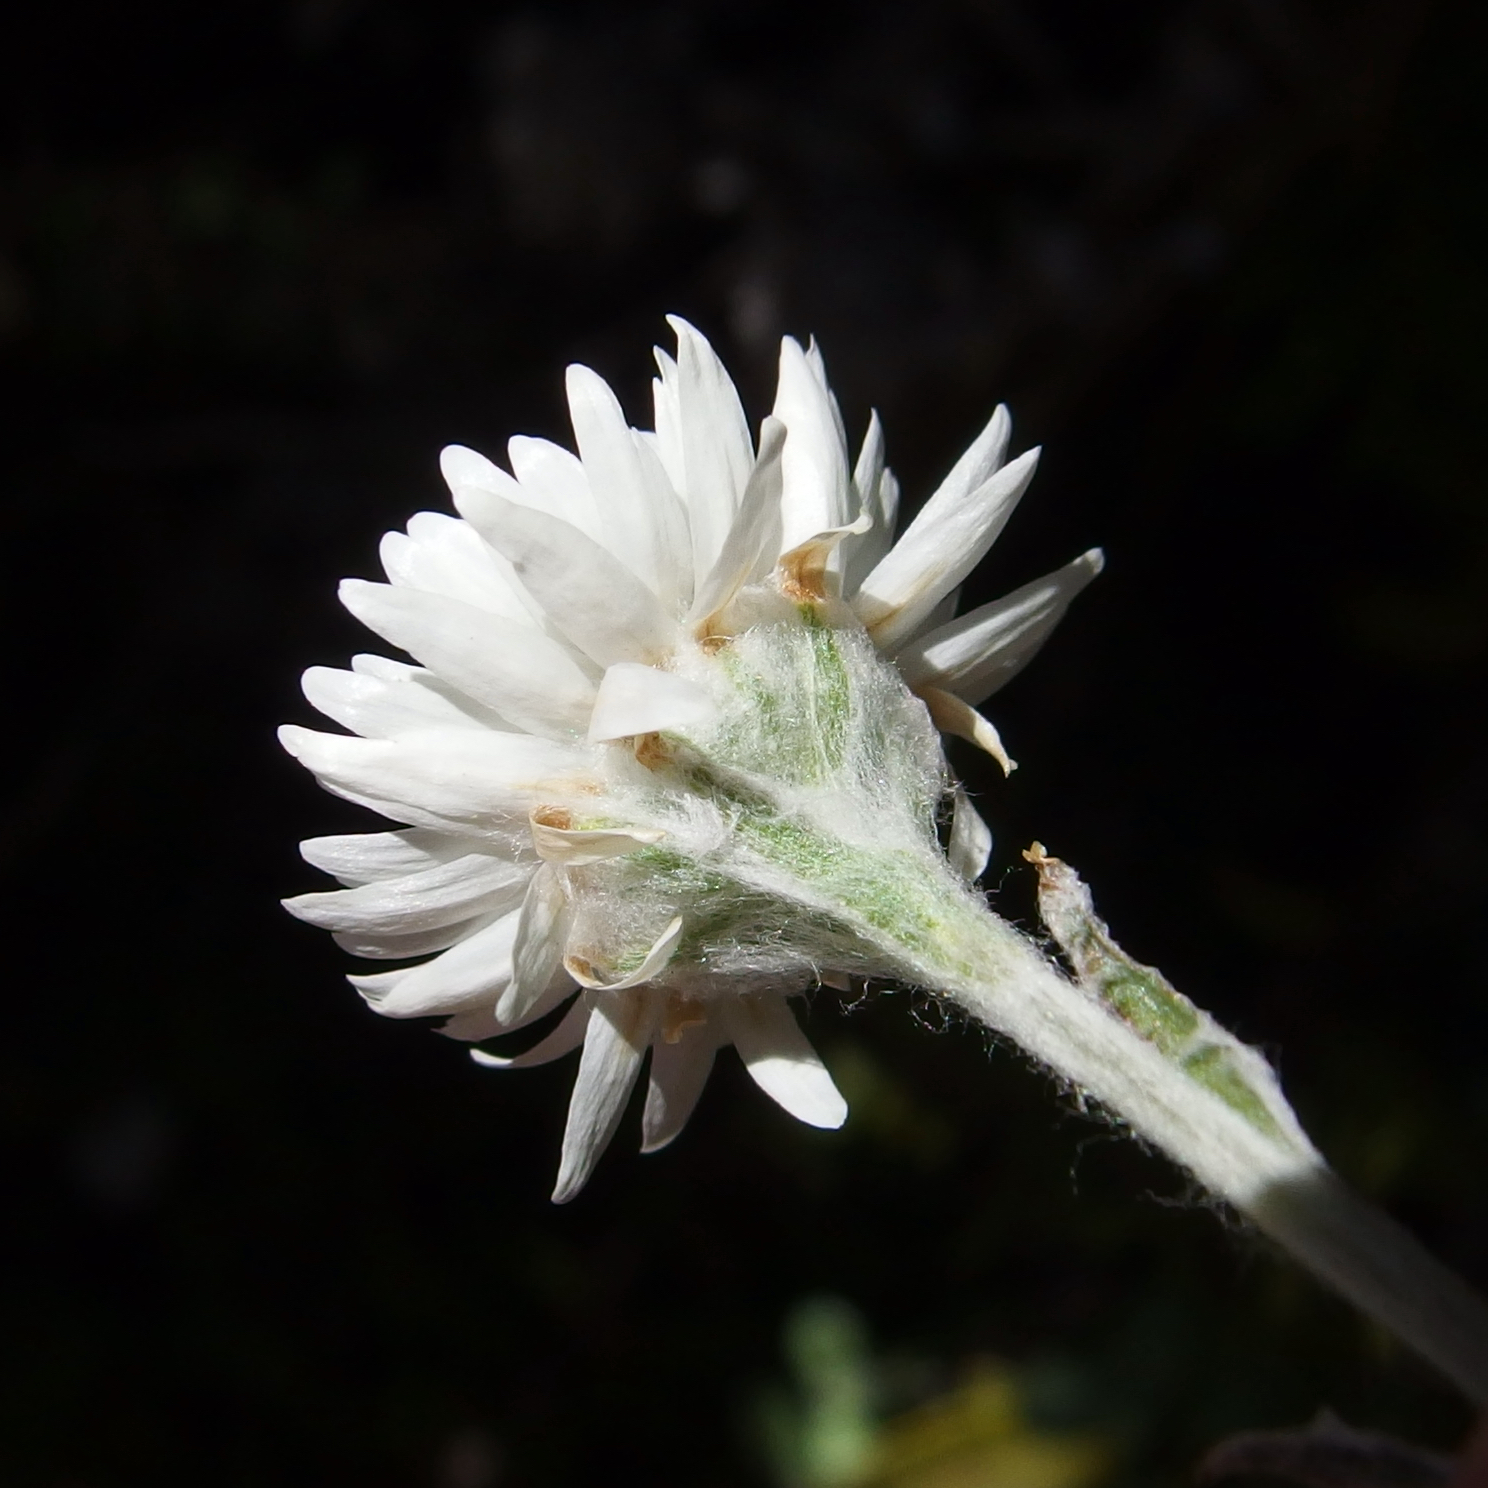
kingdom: Plantae
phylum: Tracheophyta
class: Magnoliopsida
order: Asterales
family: Asteraceae
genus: Anaphalioides
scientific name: Anaphalioides bellidioides
